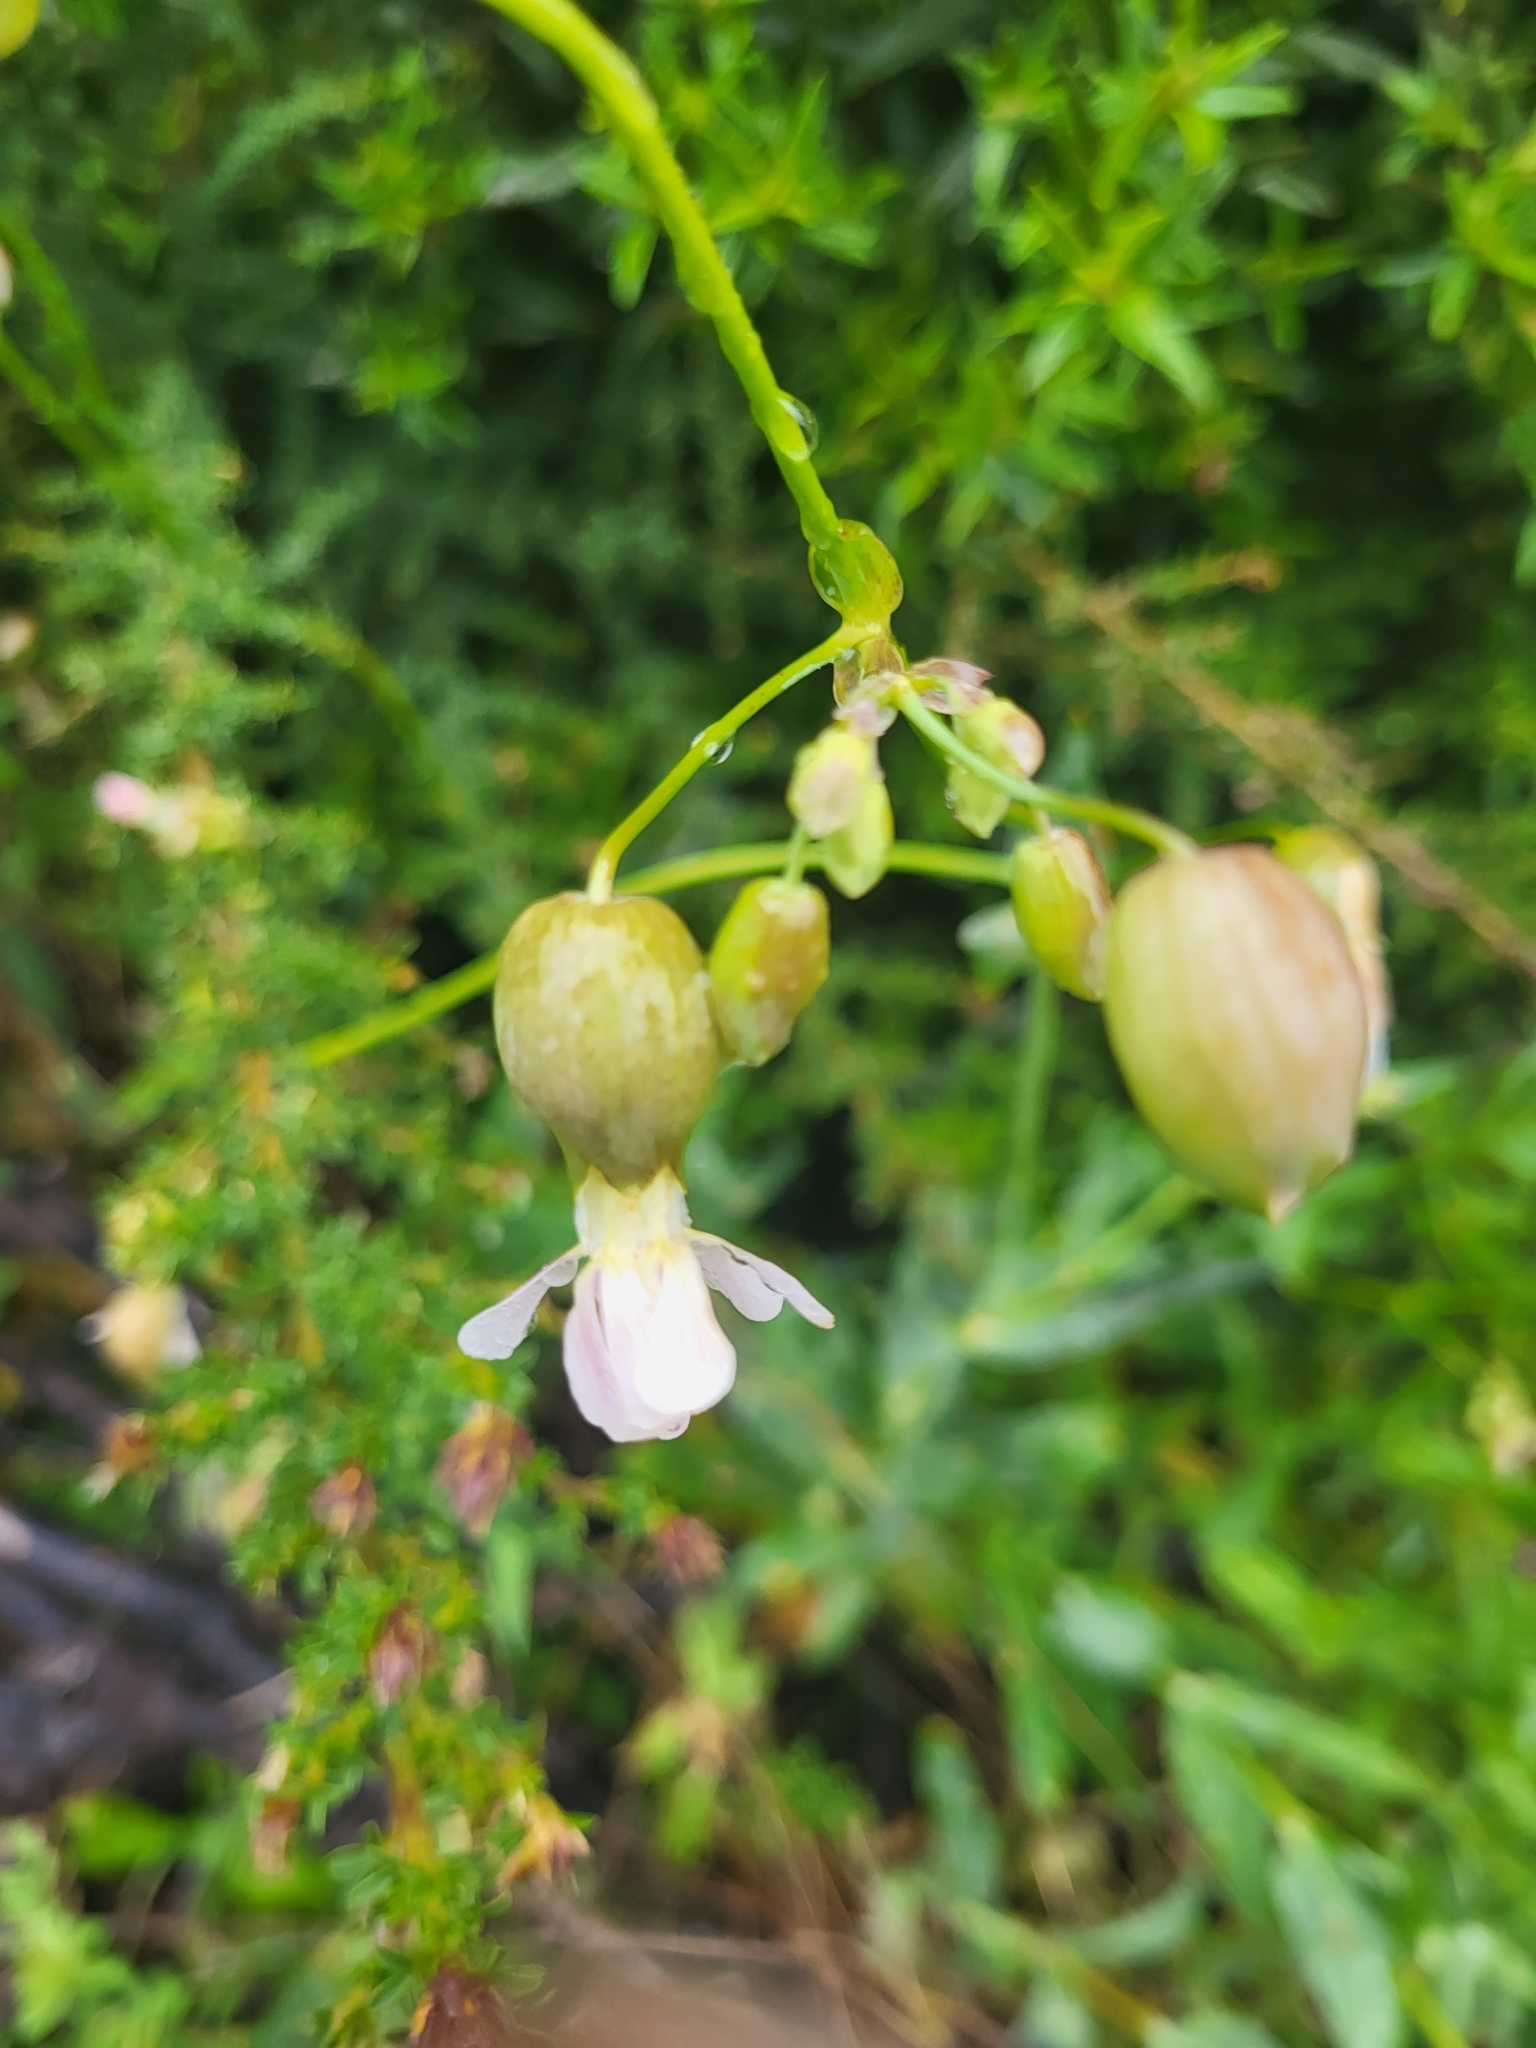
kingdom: Plantae
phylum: Tracheophyta
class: Magnoliopsida
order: Caryophyllales
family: Caryophyllaceae
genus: Silene
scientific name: Silene vulgaris
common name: Bladder campion
